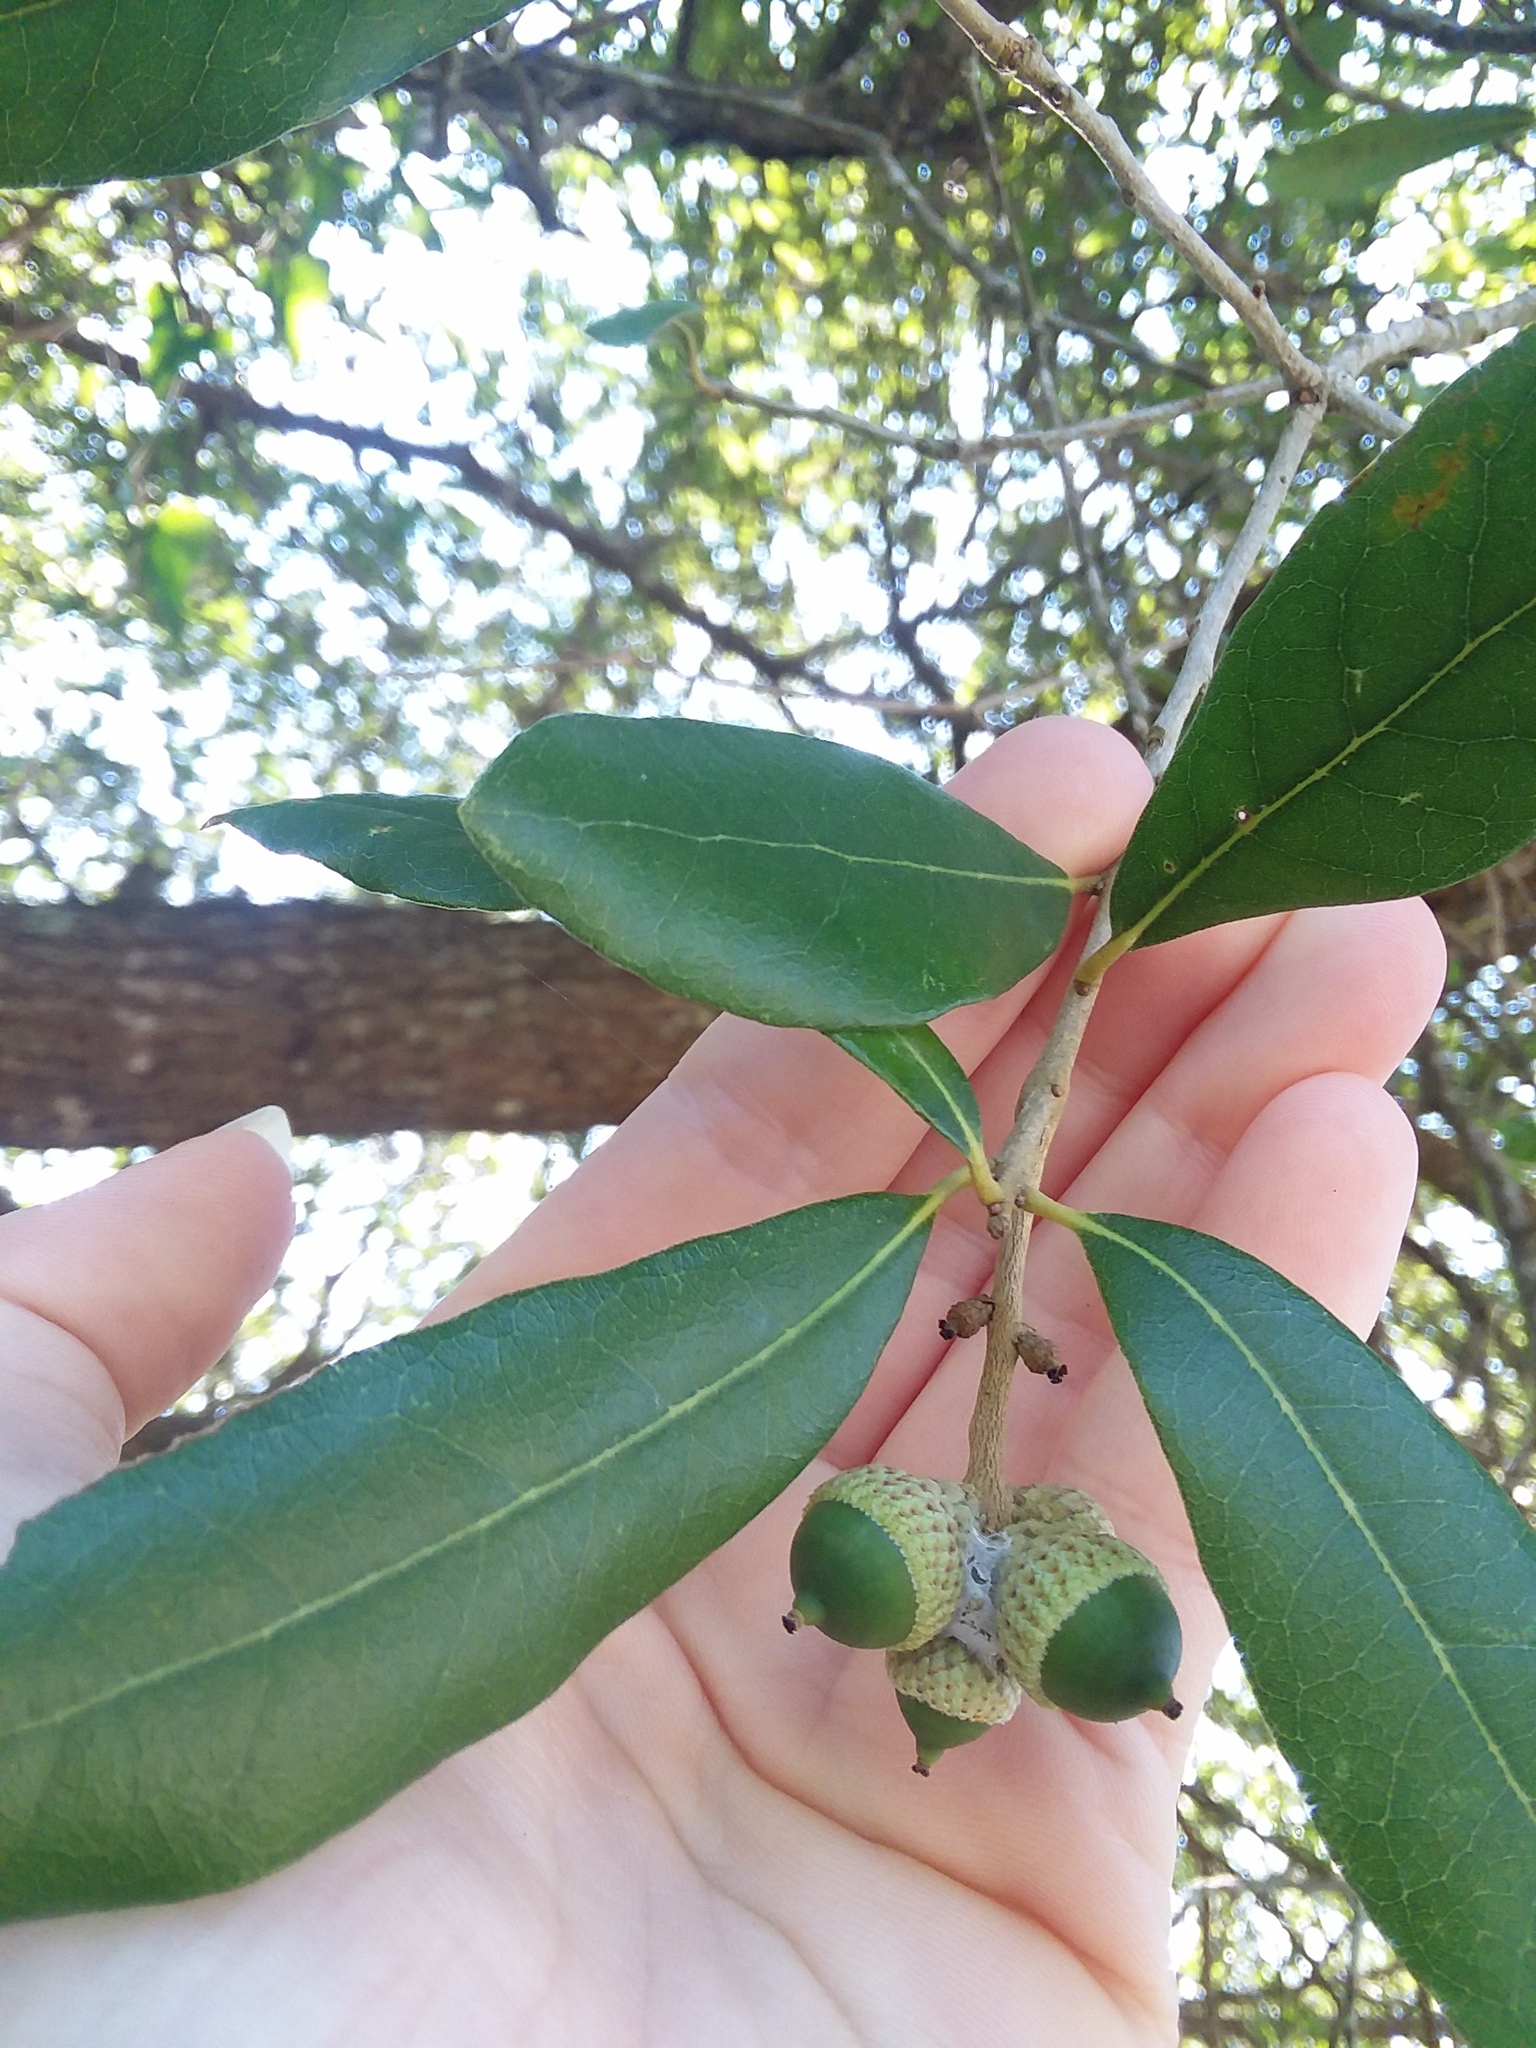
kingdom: Plantae
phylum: Tracheophyta
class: Magnoliopsida
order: Fagales
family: Fagaceae
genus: Quercus
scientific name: Quercus virginiana
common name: Southern live oak
